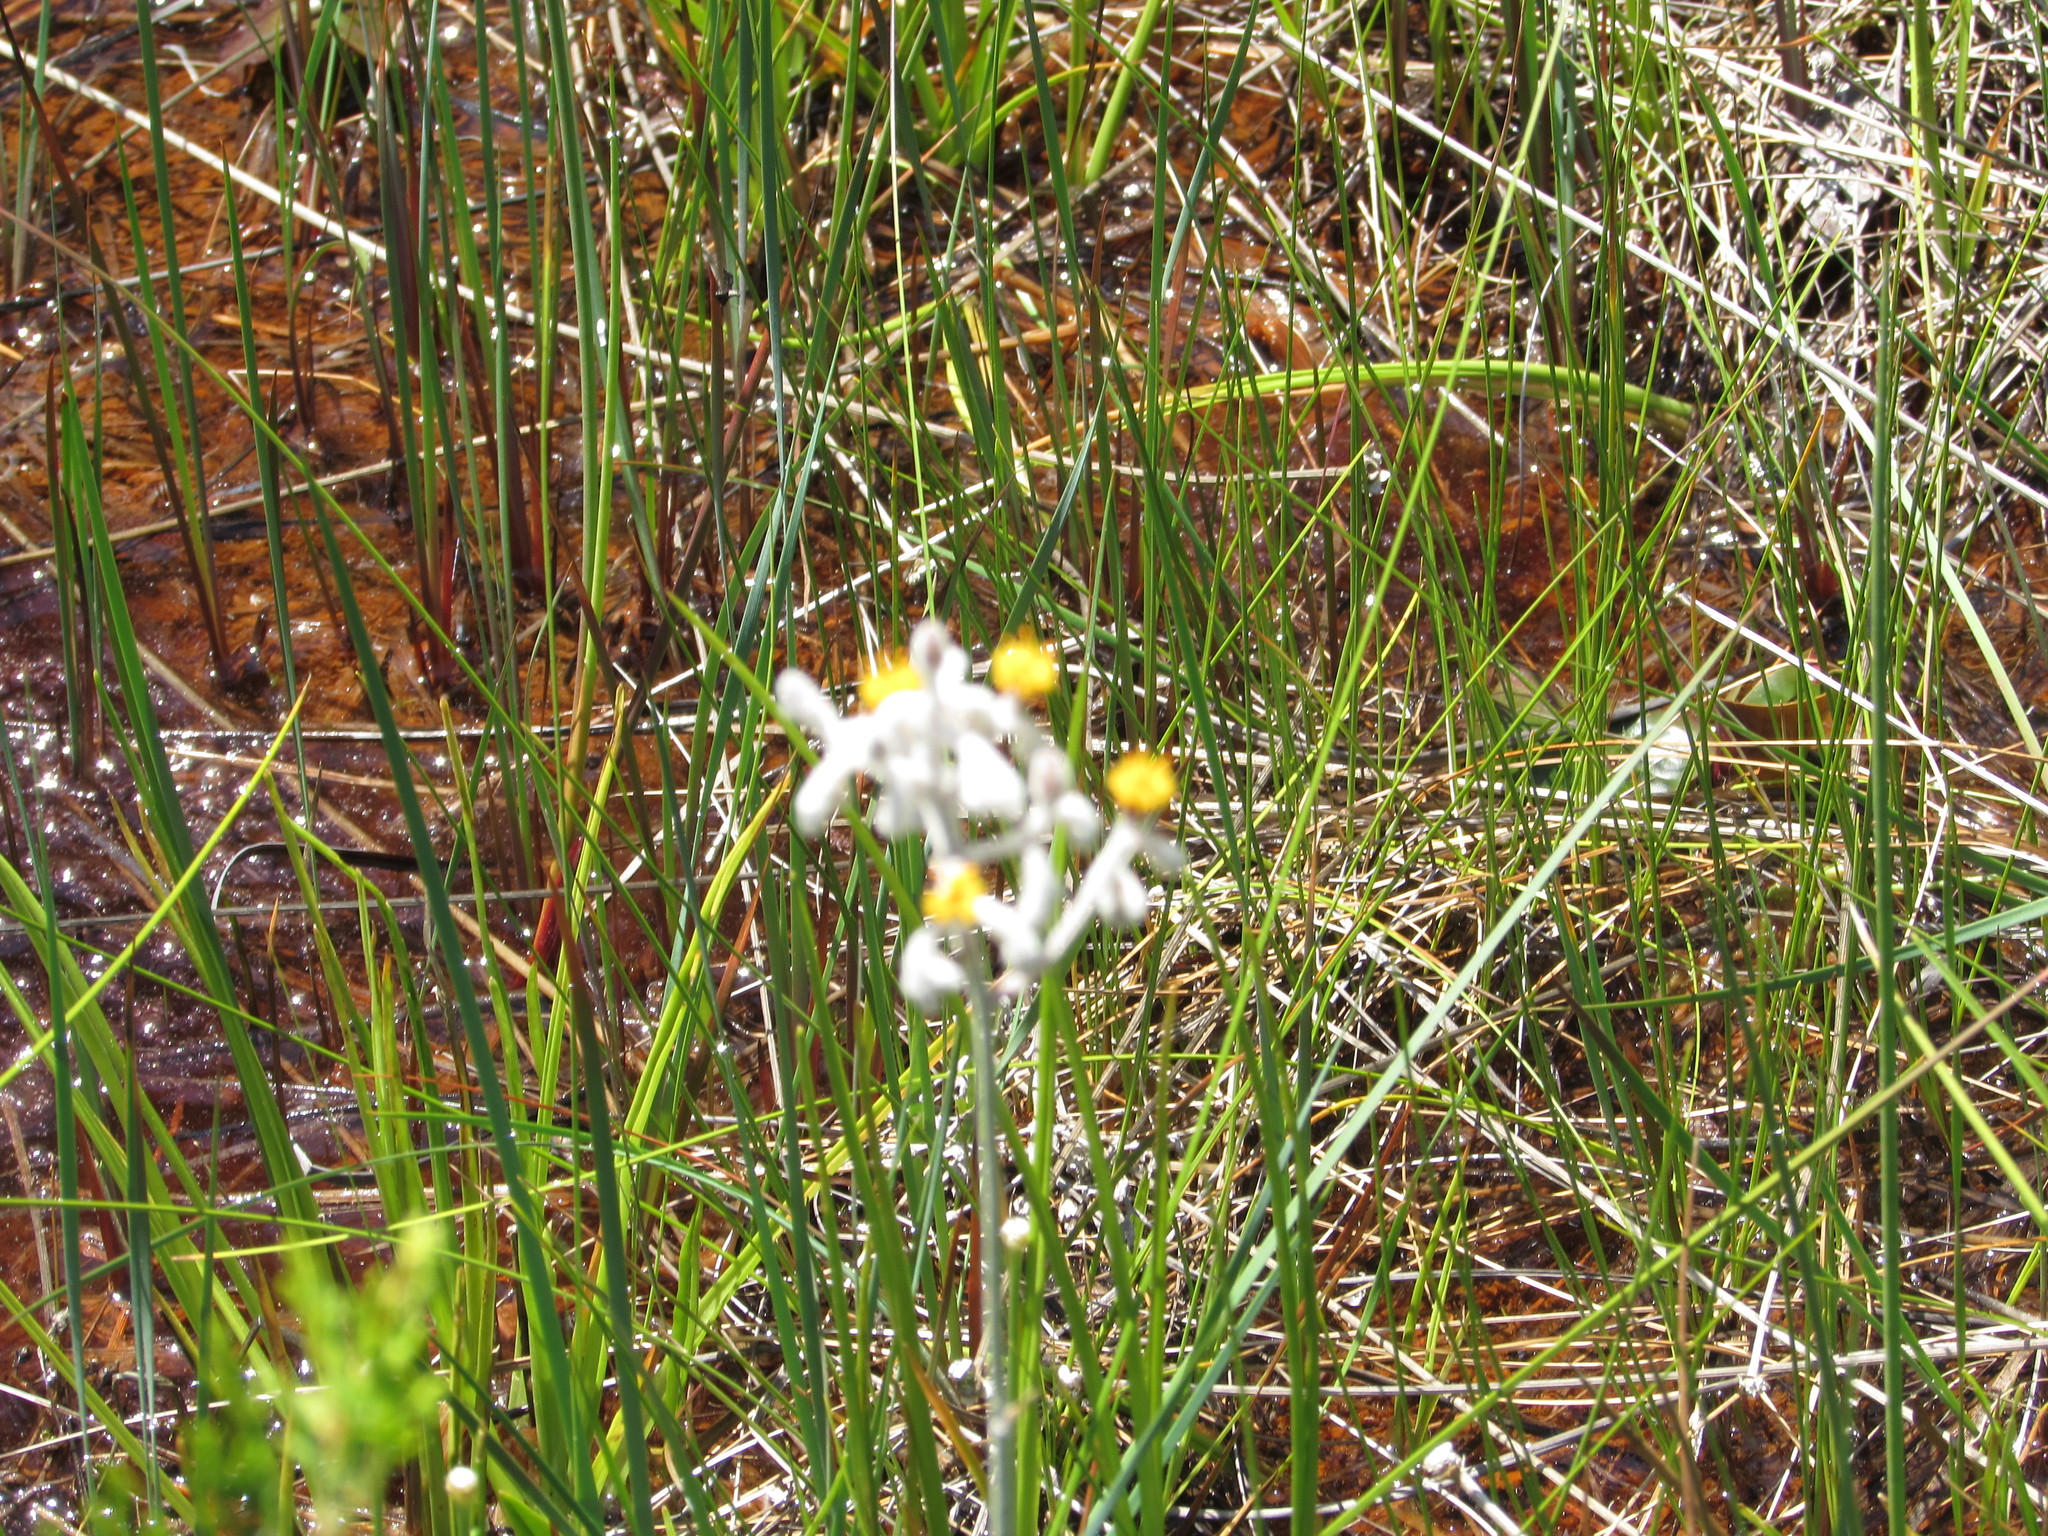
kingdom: Plantae
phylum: Tracheophyta
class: Liliopsida
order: Dioscoreales
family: Nartheciaceae
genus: Lophiola
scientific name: Lophiola aurea
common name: Golden-crest
